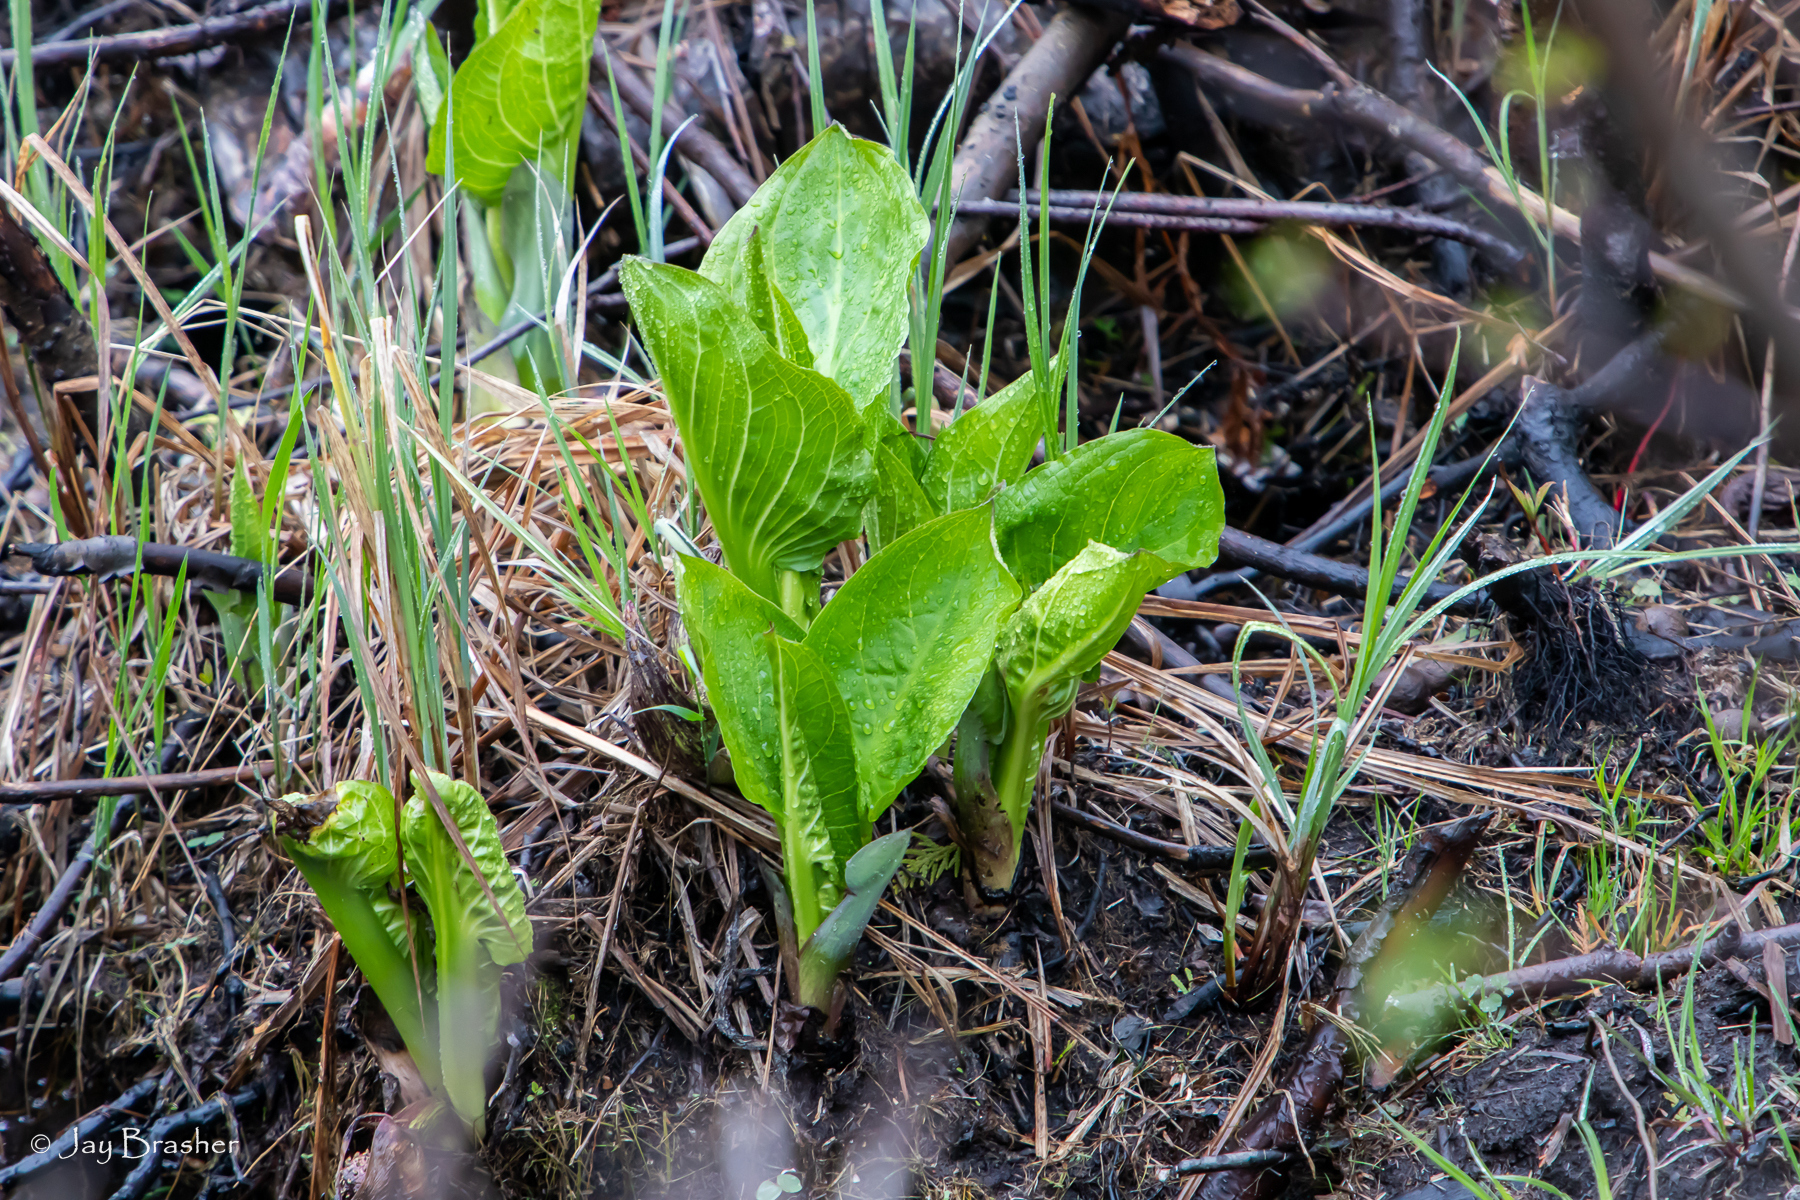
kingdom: Plantae
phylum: Tracheophyta
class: Liliopsida
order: Alismatales
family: Araceae
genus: Symplocarpus
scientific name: Symplocarpus foetidus
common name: Eastern skunk cabbage
